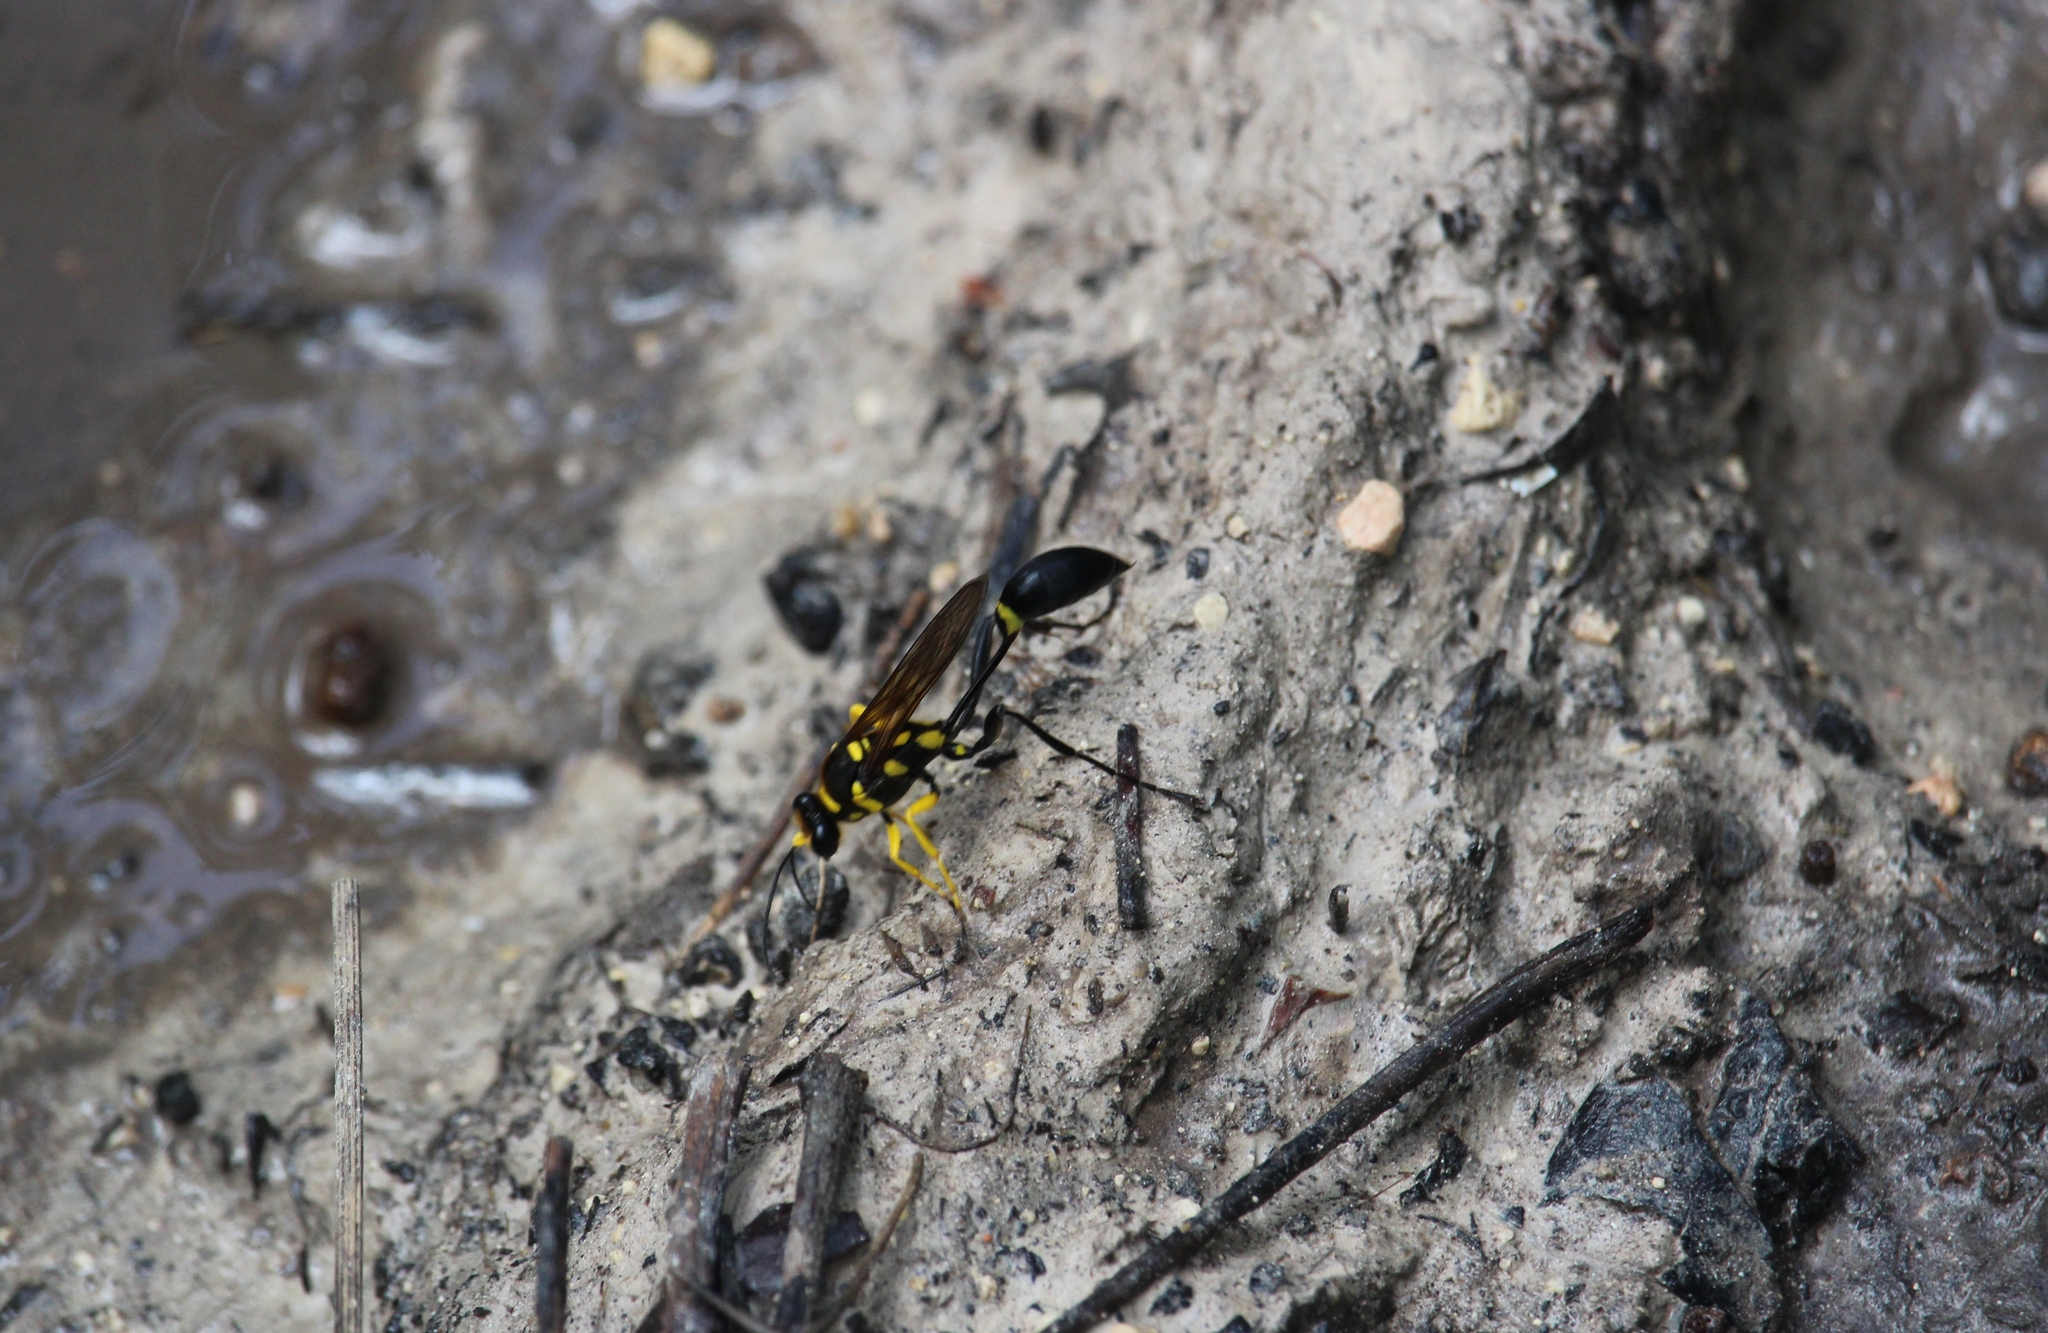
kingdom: Animalia
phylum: Arthropoda
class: Insecta
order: Hymenoptera
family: Sphecidae
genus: Sceliphron
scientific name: Sceliphron fistularium
